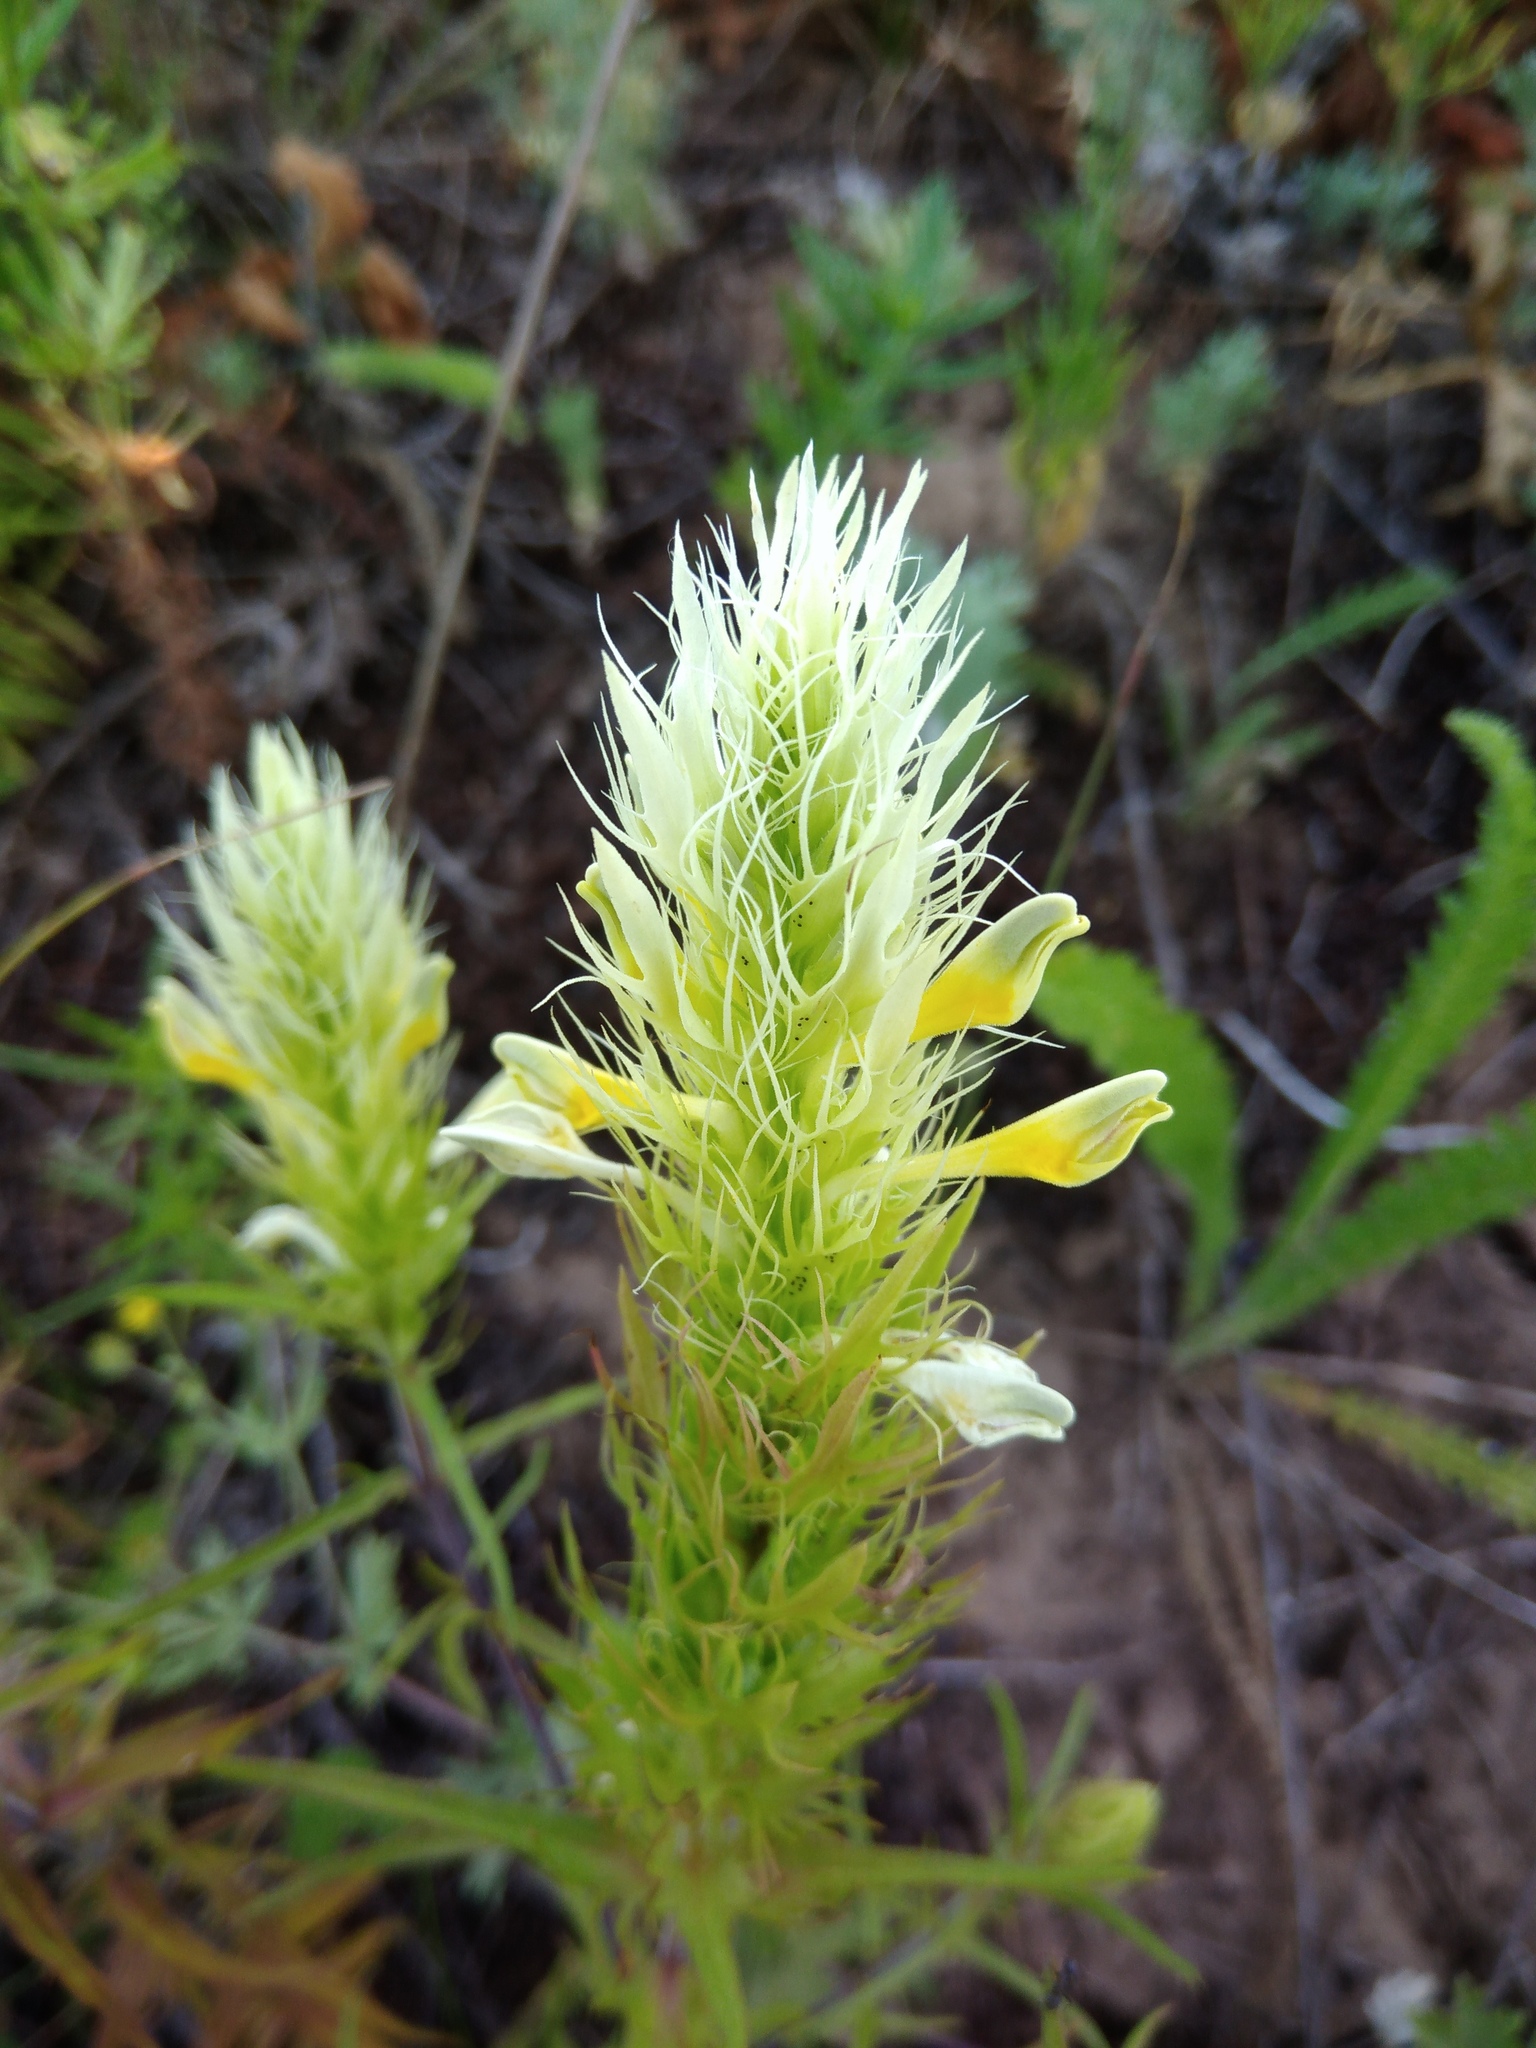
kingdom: Plantae
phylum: Tracheophyta
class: Magnoliopsida
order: Lamiales
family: Orobanchaceae
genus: Melampyrum
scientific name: Melampyrum arvense
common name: Field cow-wheat
